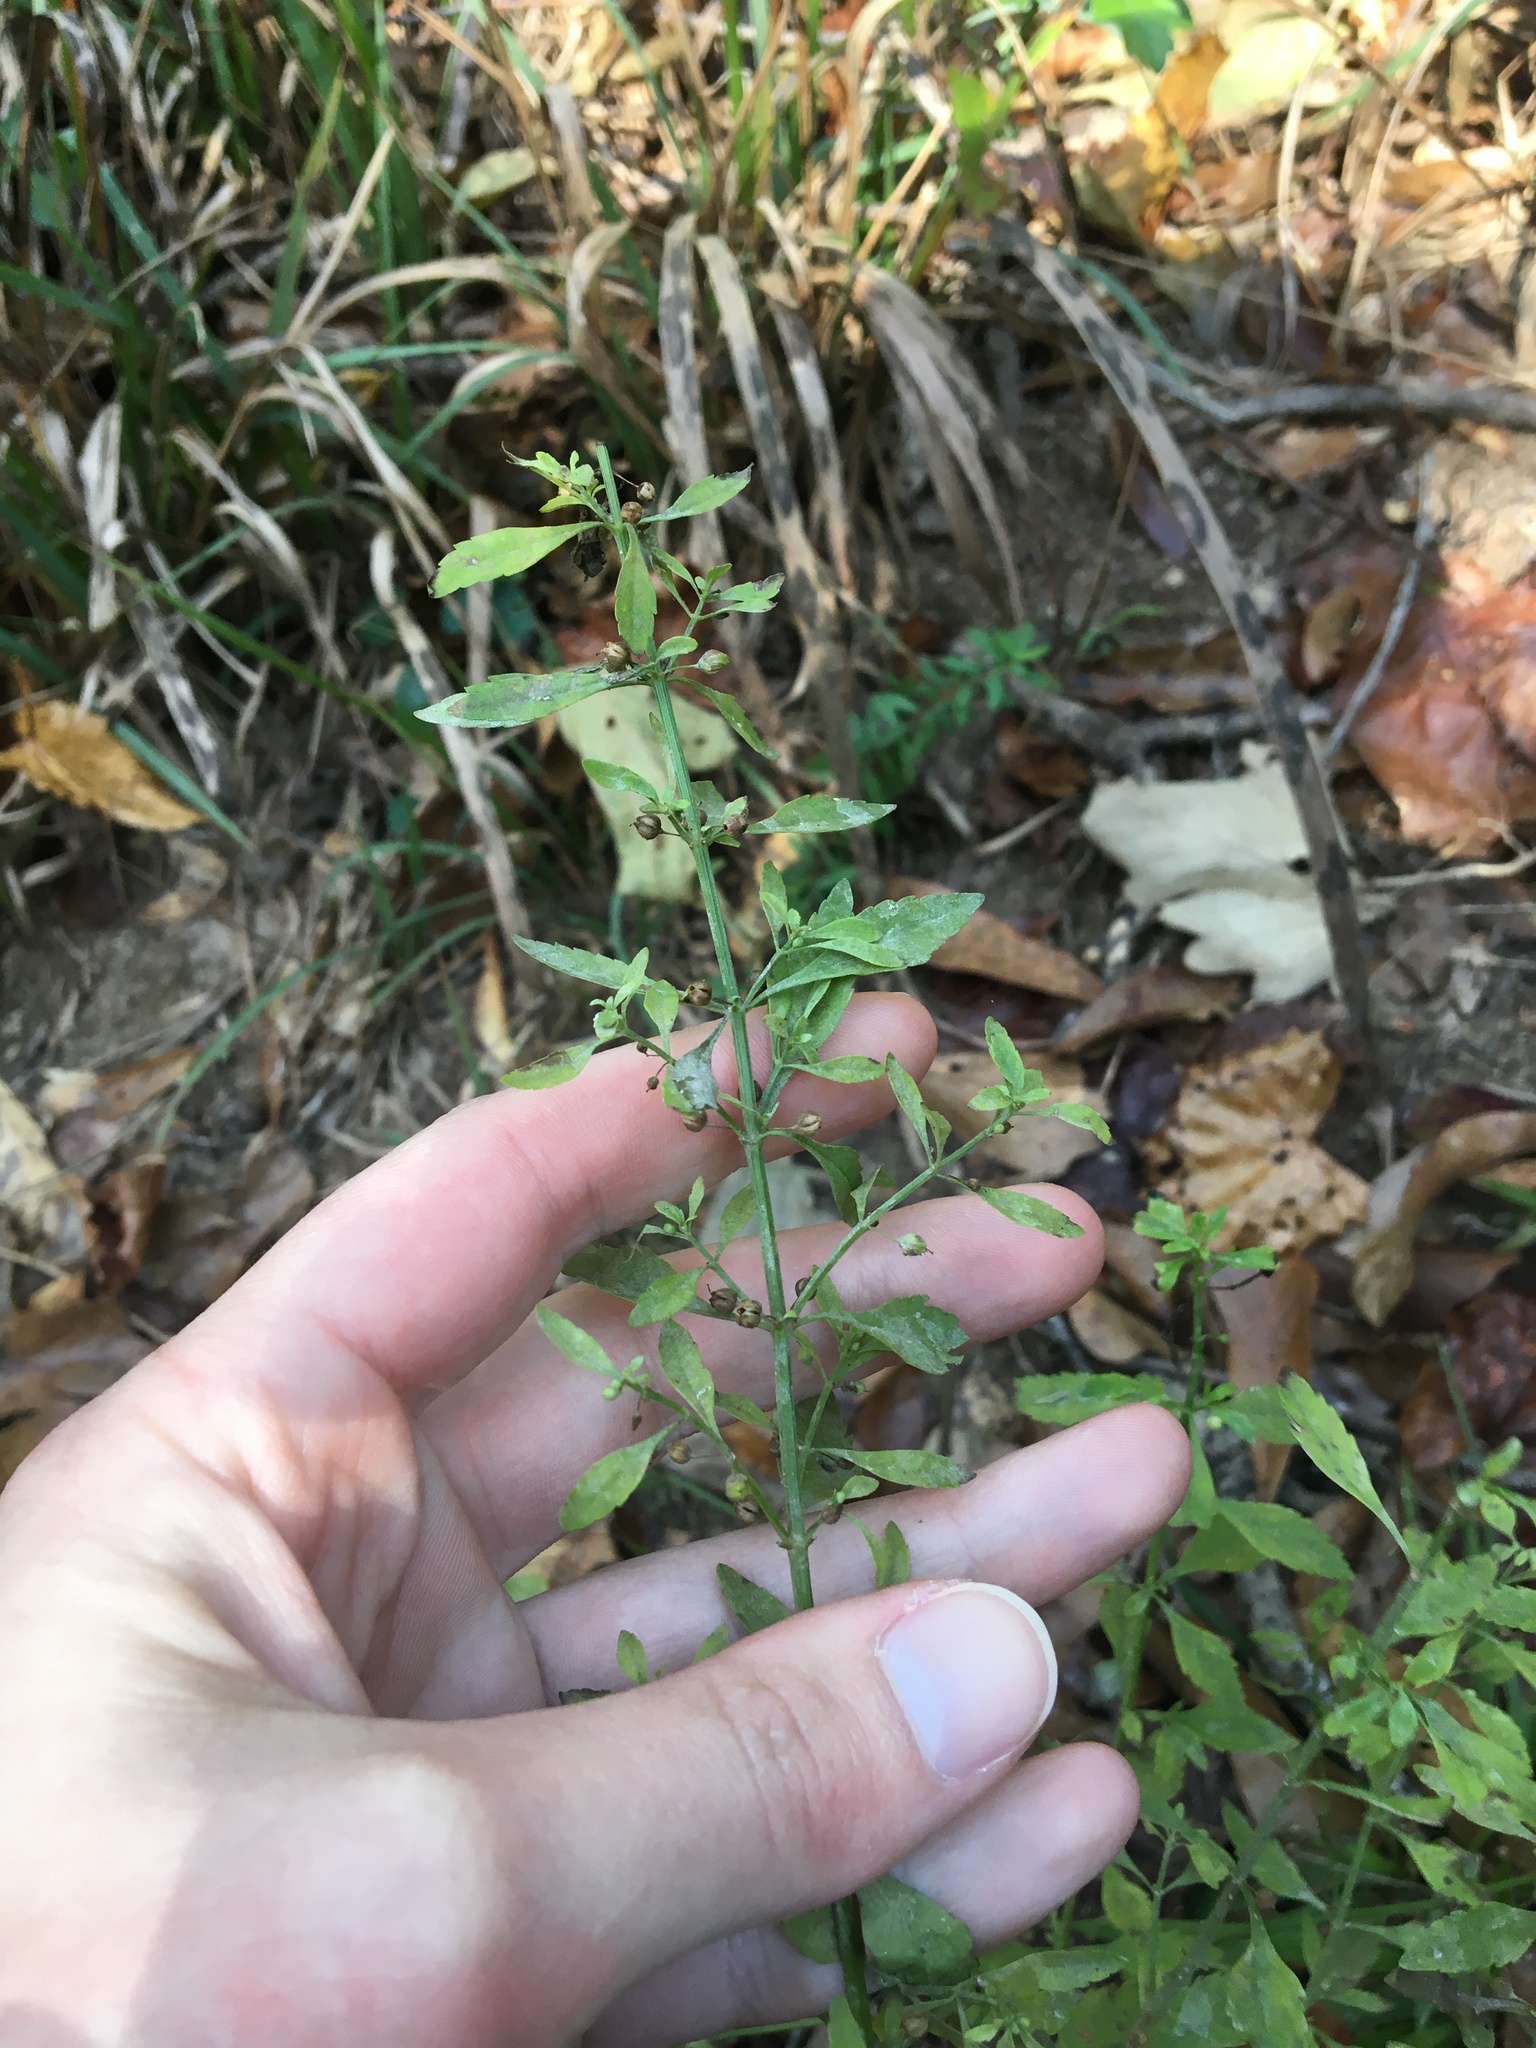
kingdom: Plantae
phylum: Tracheophyta
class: Magnoliopsida
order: Lamiales
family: Plantaginaceae
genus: Scoparia
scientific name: Scoparia dulcis
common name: Scoparia-weed
